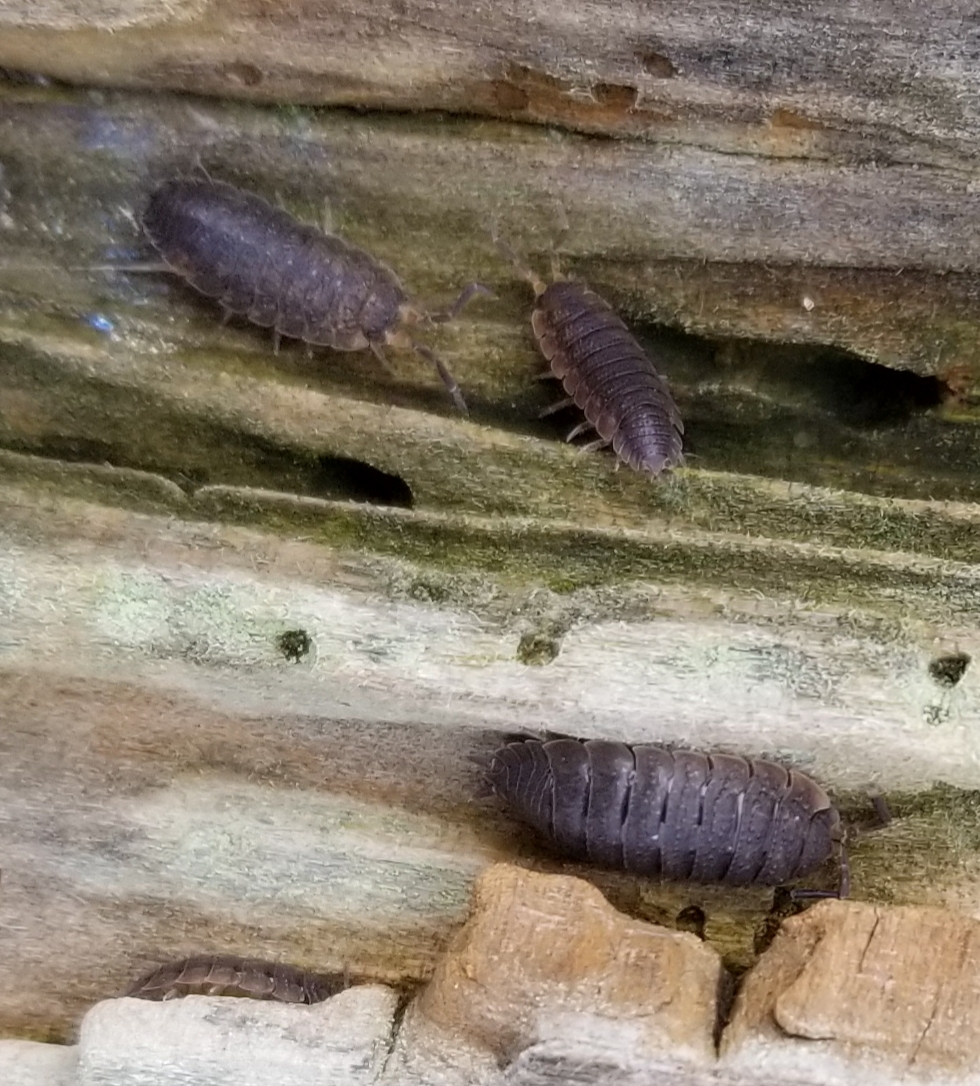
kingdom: Animalia
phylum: Arthropoda
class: Malacostraca
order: Isopoda
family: Porcellionidae
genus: Porcellio
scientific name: Porcellio scaber
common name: Common rough woodlouse
